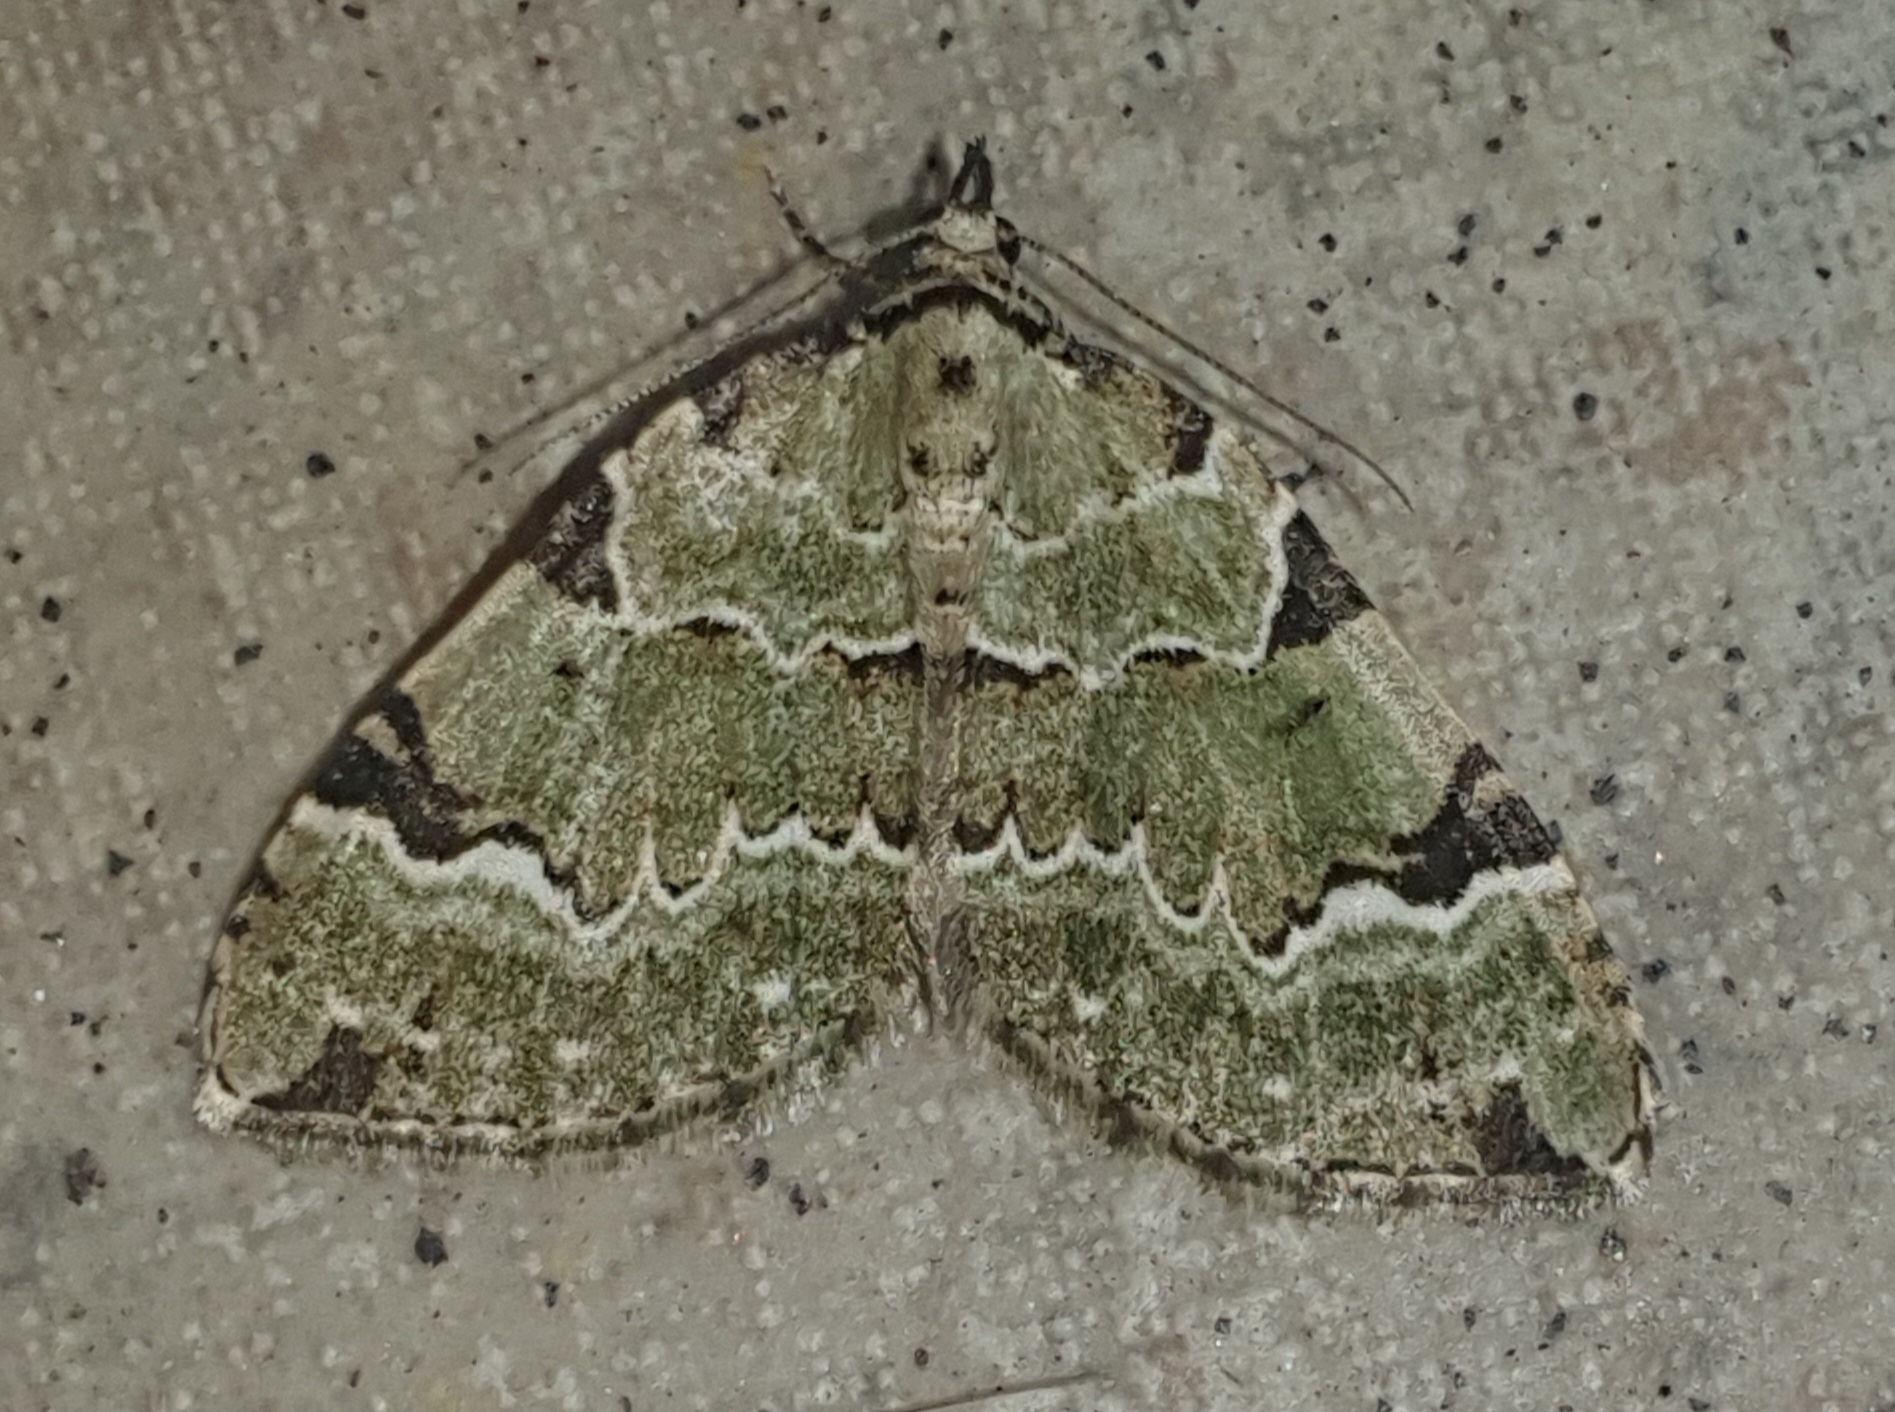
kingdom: Animalia
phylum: Arthropoda
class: Insecta
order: Lepidoptera
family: Geometridae
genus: Colostygia
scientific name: Colostygia pectinataria
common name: Green carpet
